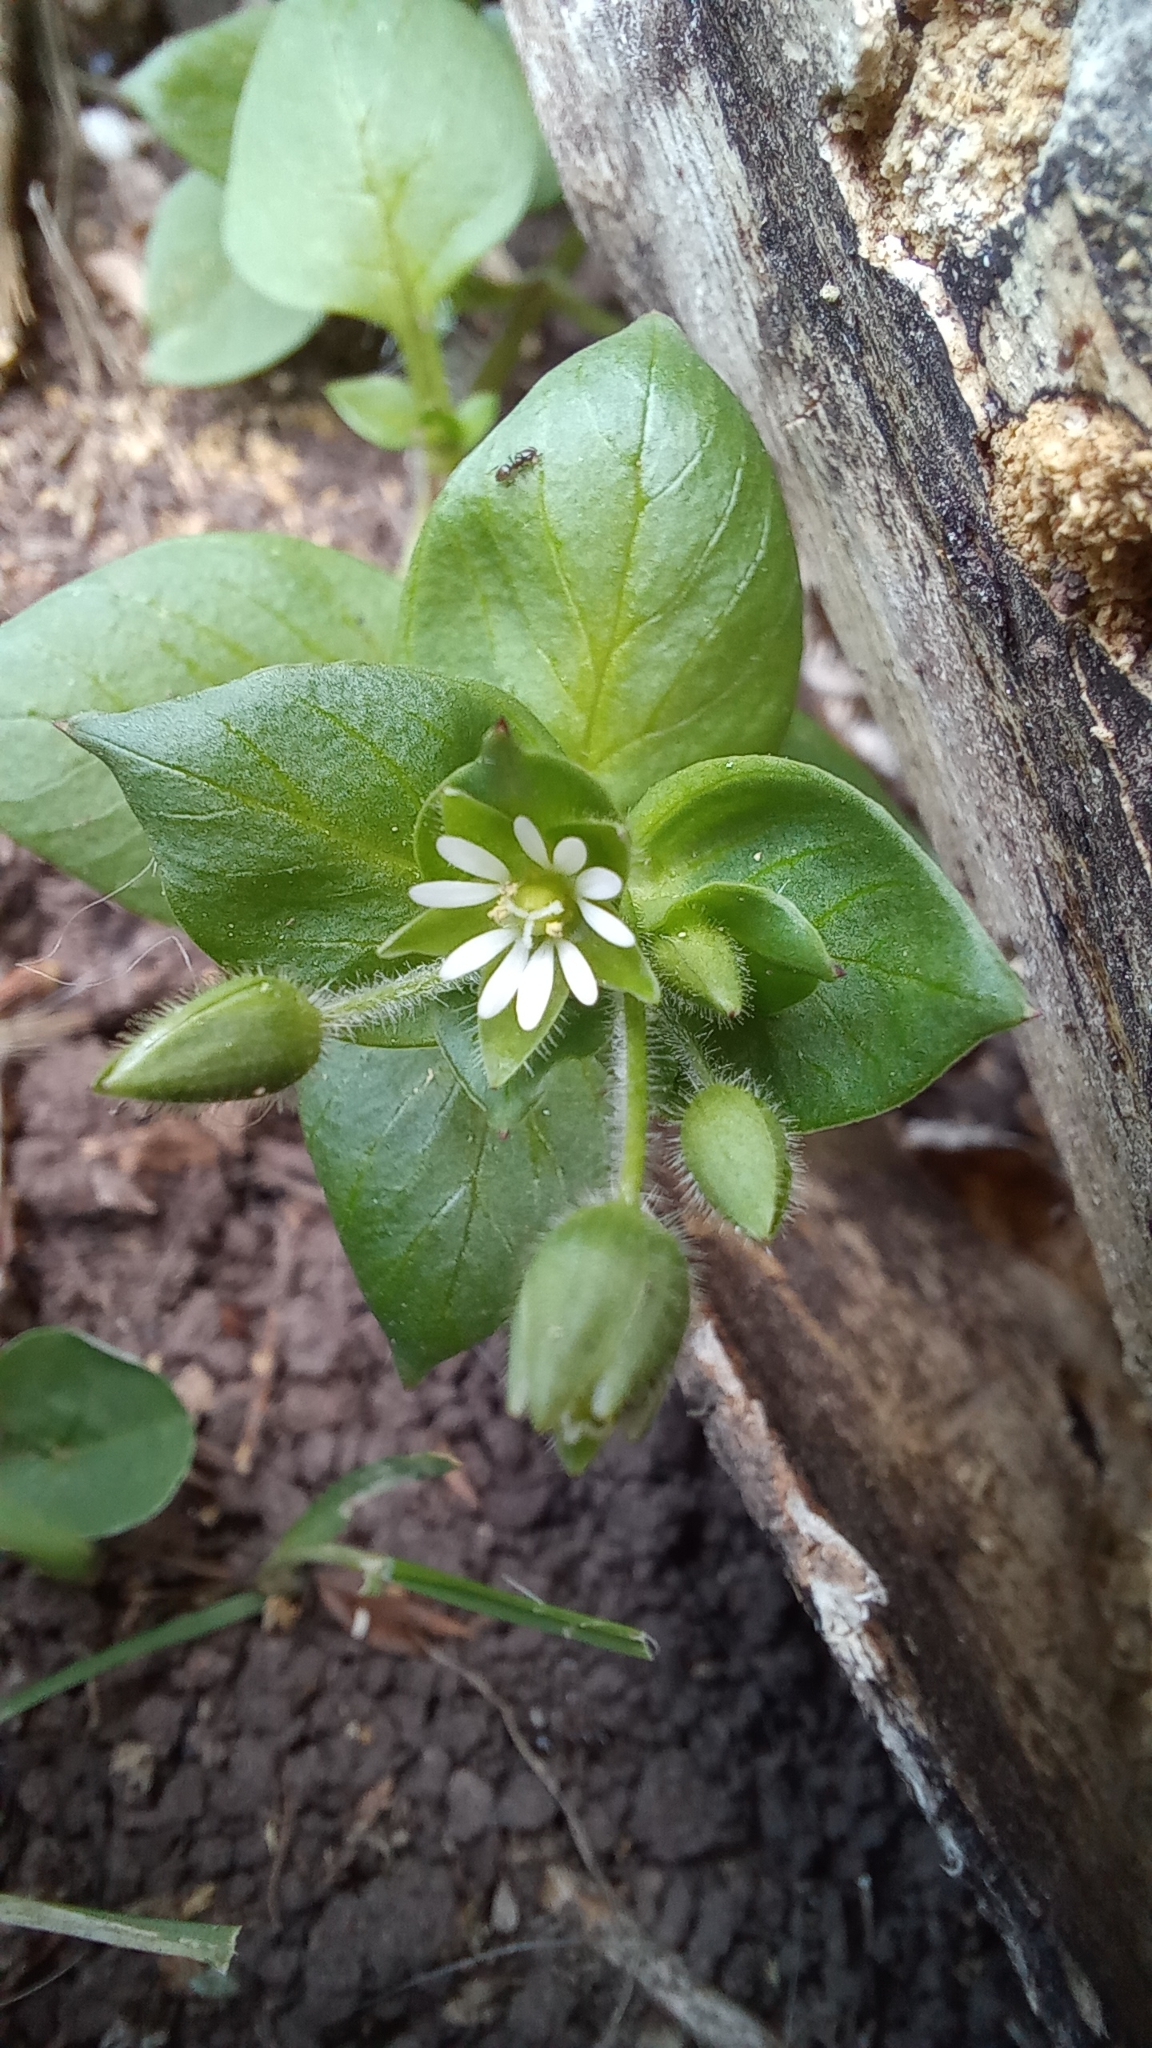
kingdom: Plantae
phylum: Tracheophyta
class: Magnoliopsida
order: Caryophyllales
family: Caryophyllaceae
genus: Stellaria
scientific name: Stellaria media
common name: Common chickweed
